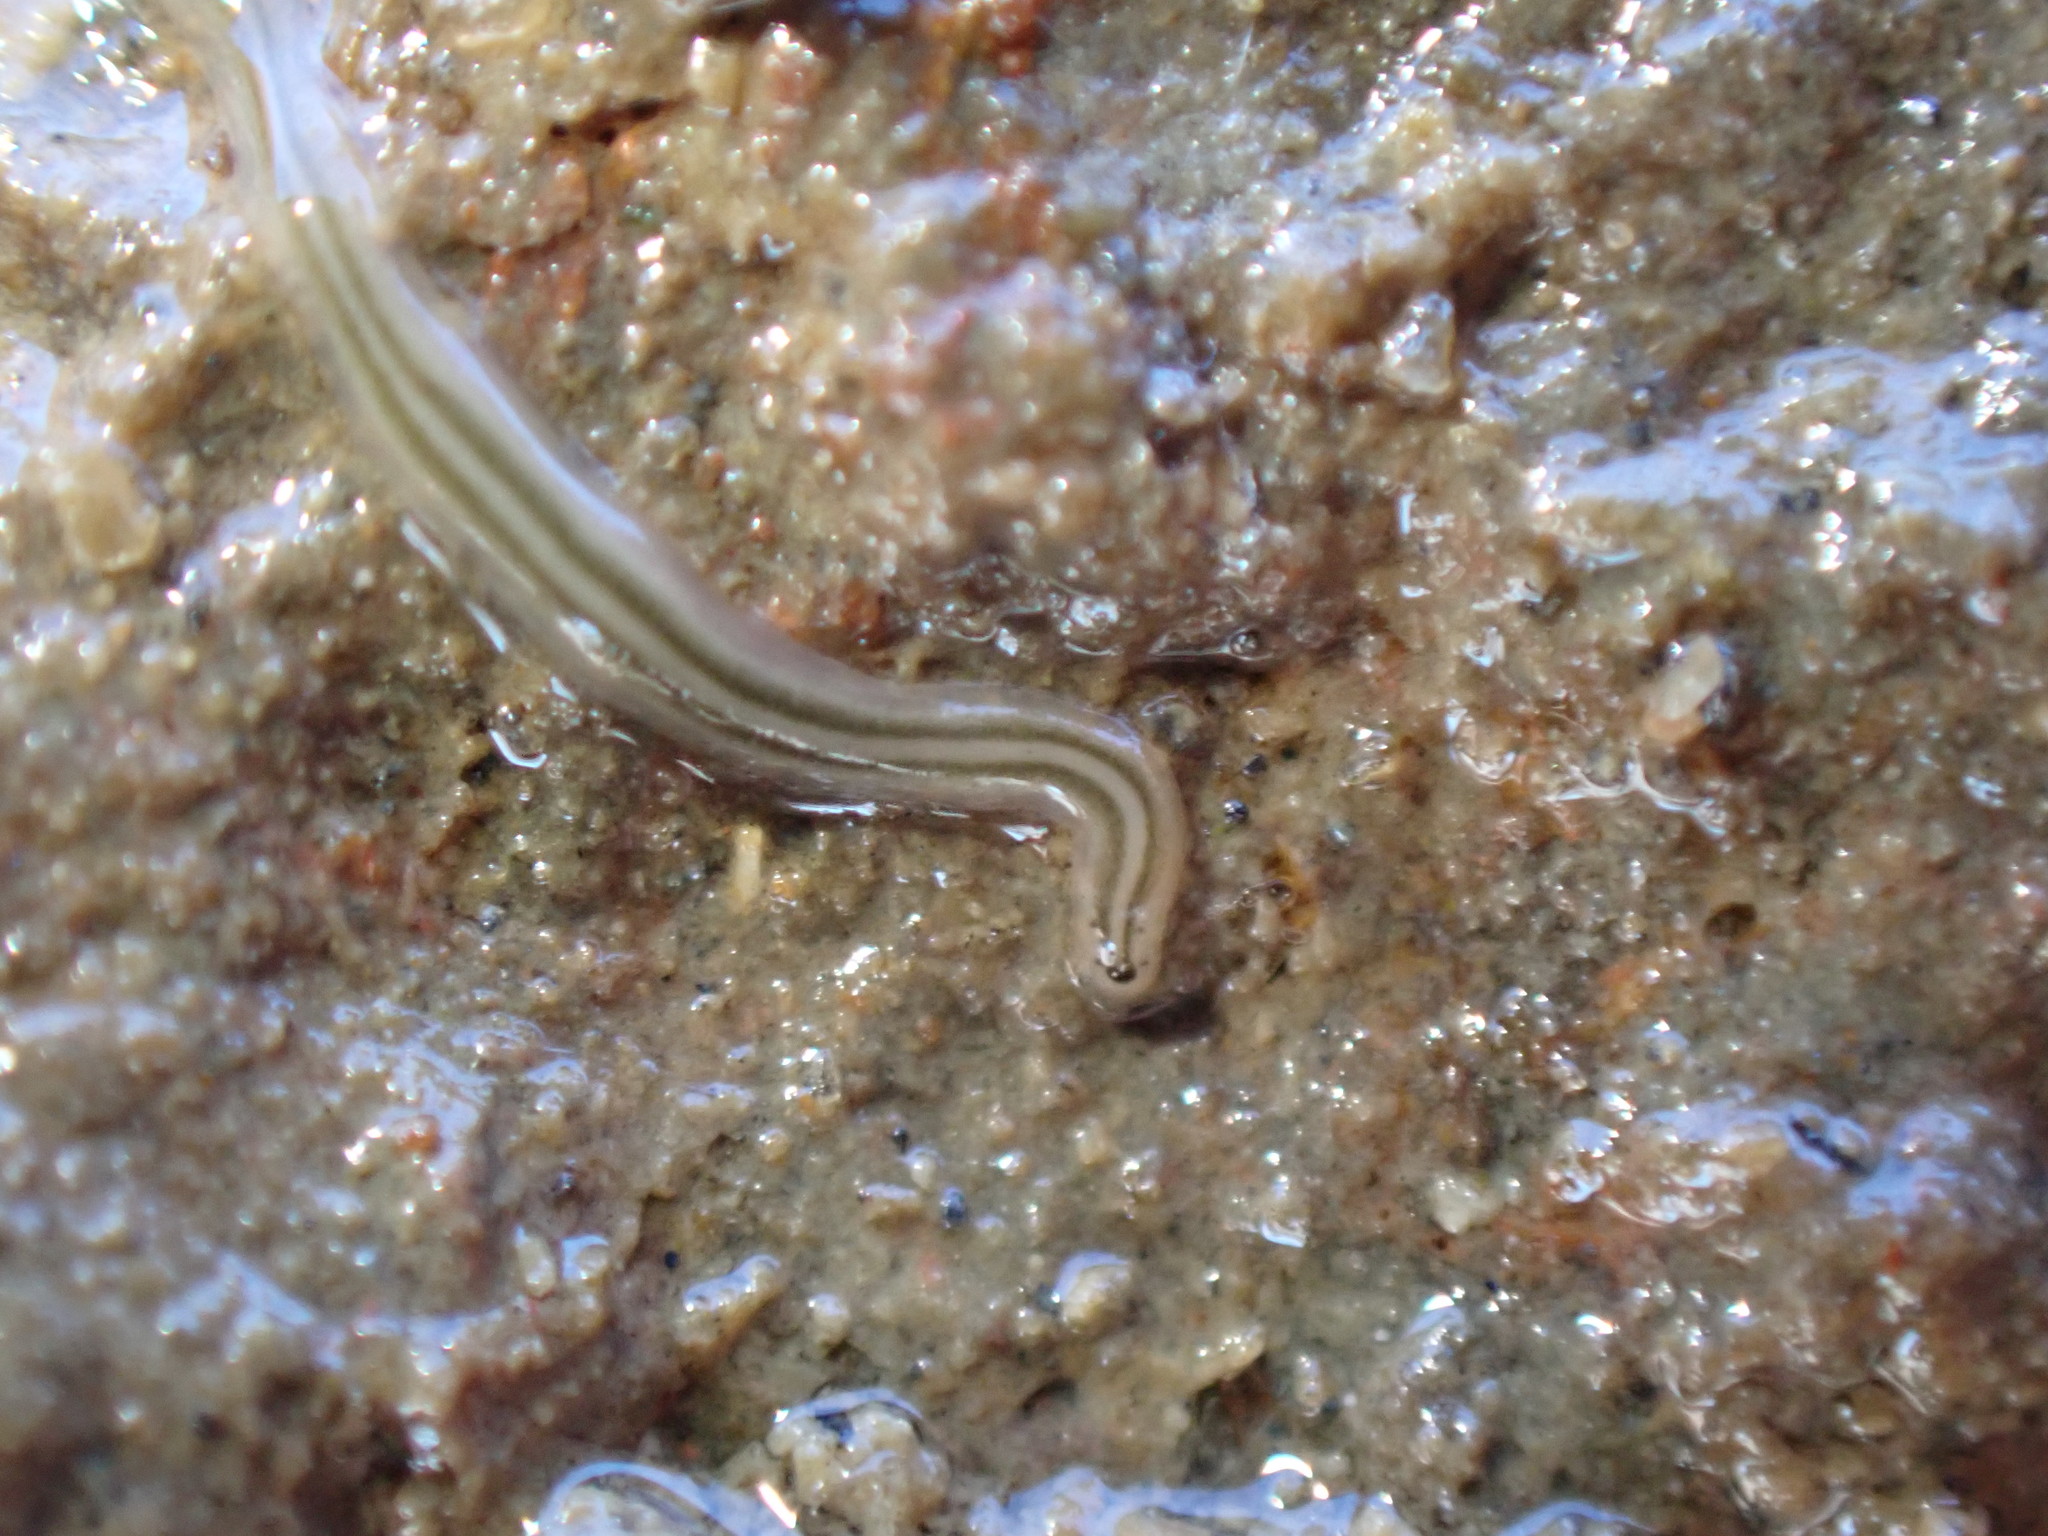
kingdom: Animalia
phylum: Nemertea
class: Hoplonemertea
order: Monostilifera
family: Emplectonematidae
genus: Nemertopsis
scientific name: Nemertopsis bivittata
